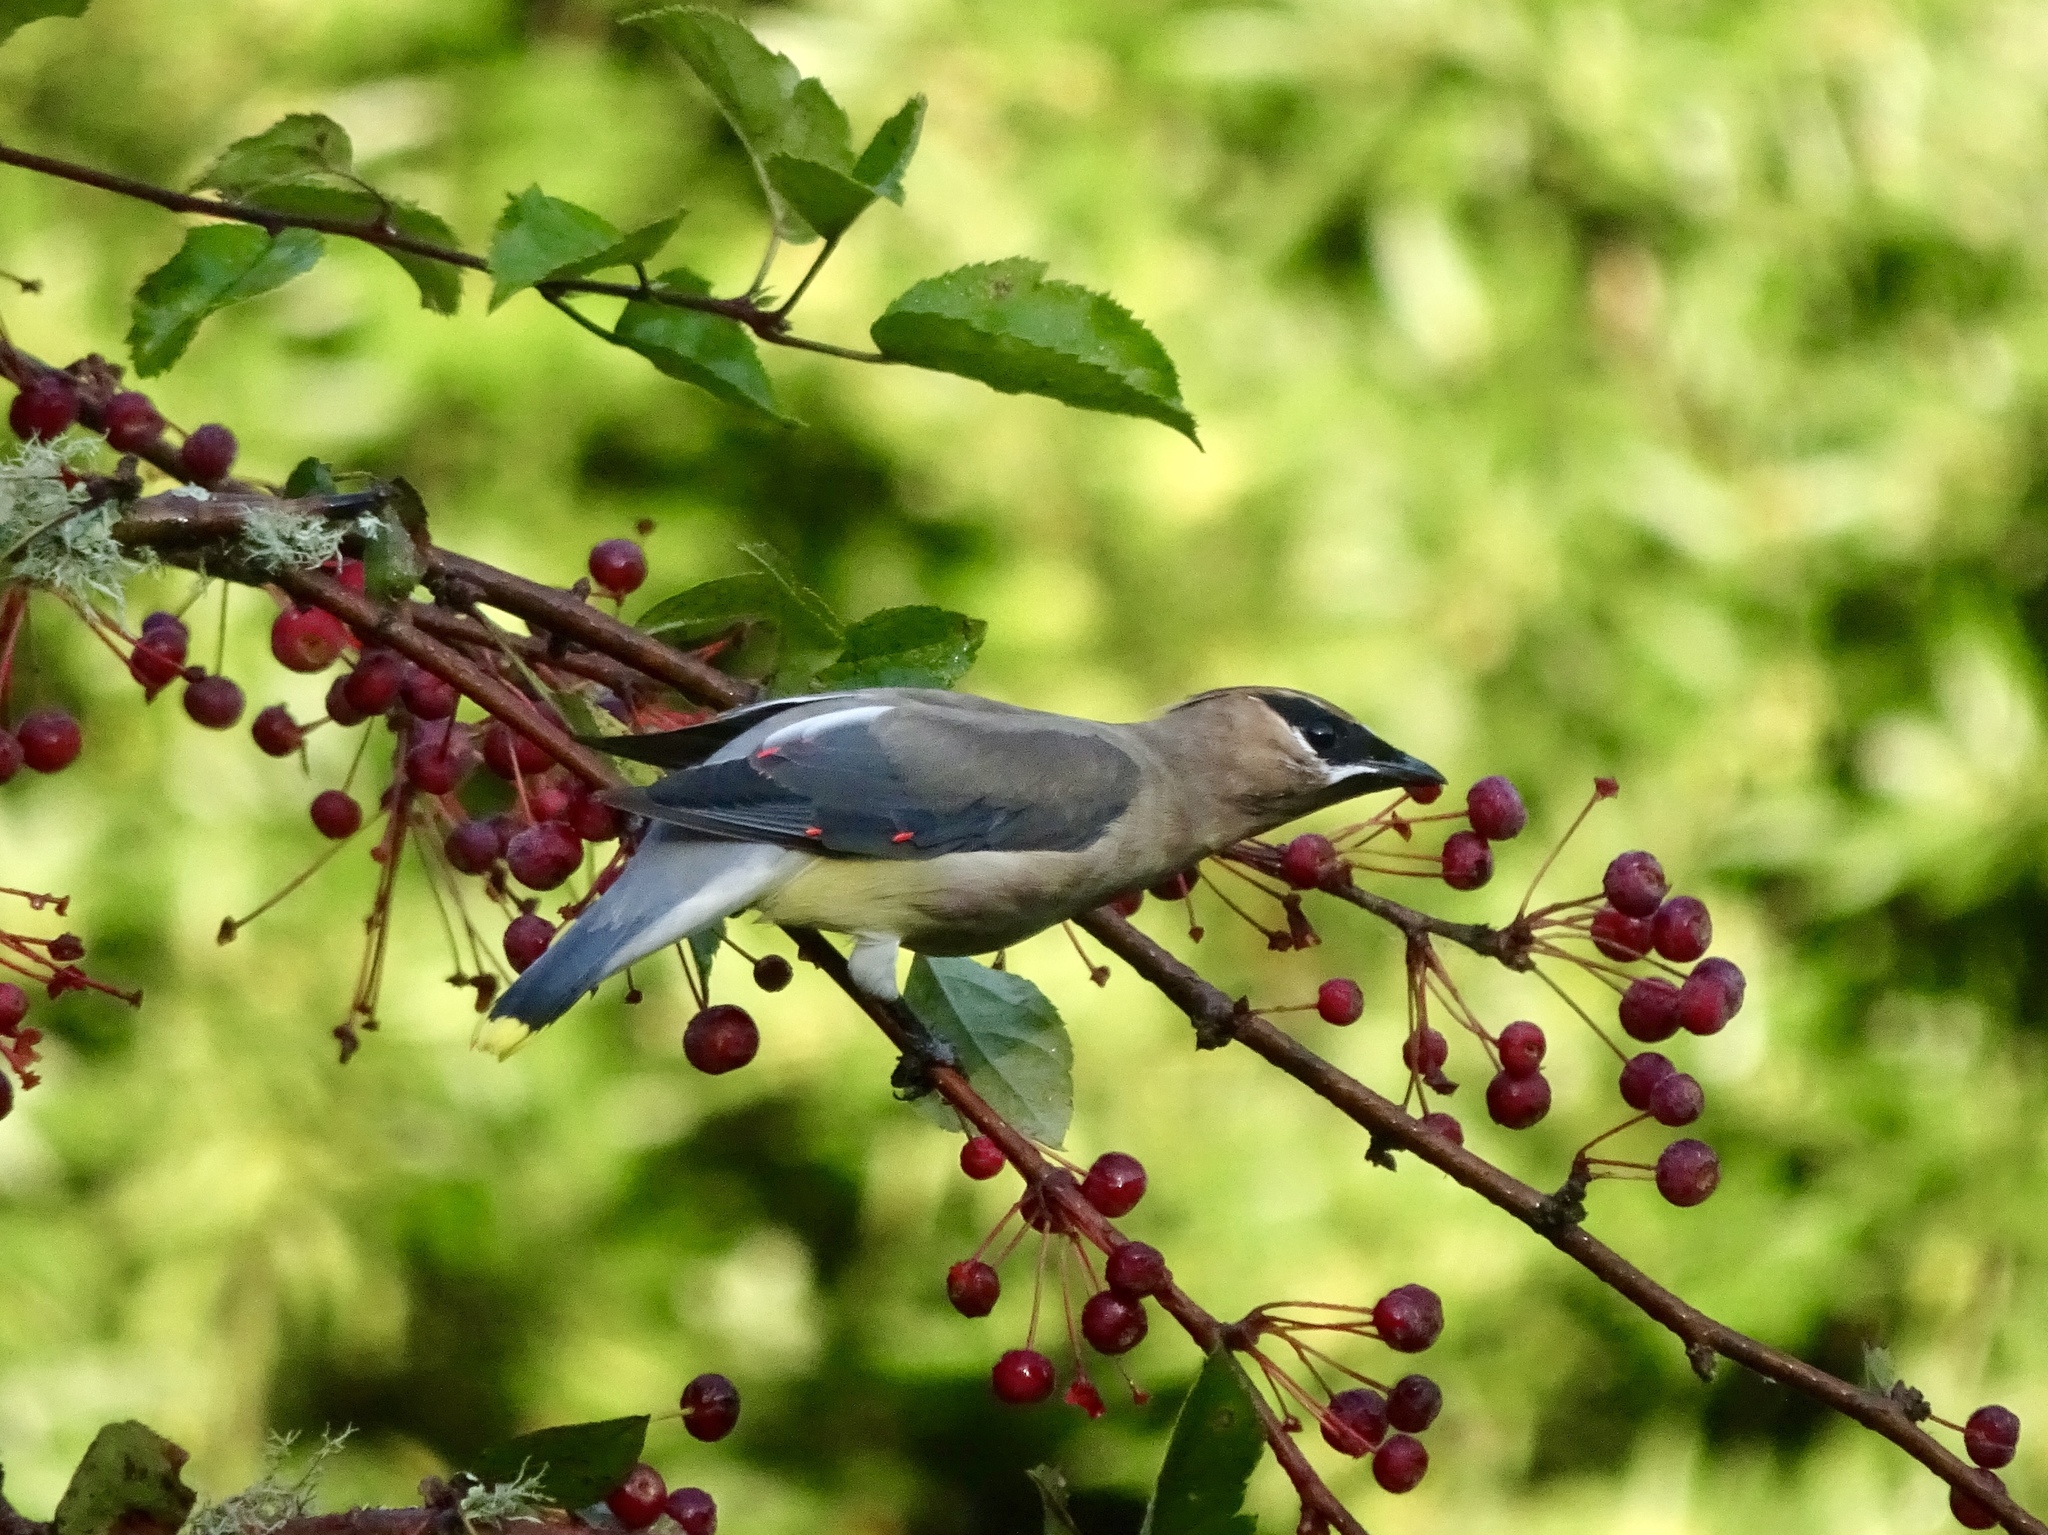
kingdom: Animalia
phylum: Chordata
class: Aves
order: Passeriformes
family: Bombycillidae
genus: Bombycilla
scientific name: Bombycilla cedrorum
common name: Cedar waxwing
